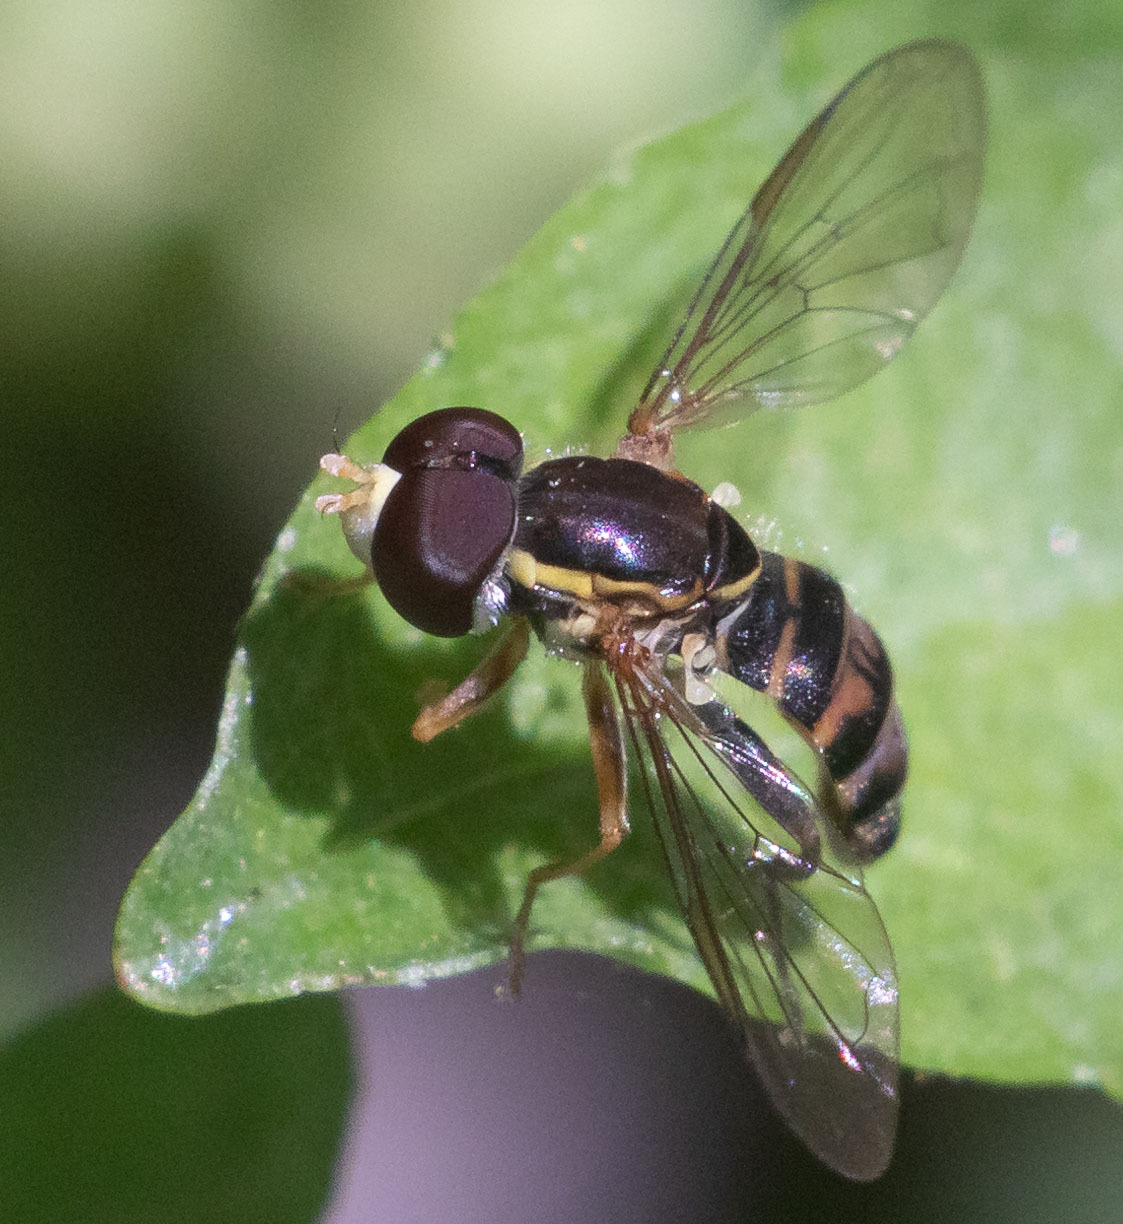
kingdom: Animalia
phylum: Arthropoda
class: Insecta
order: Diptera
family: Syrphidae
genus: Toxomerus
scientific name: Toxomerus occidentalis
